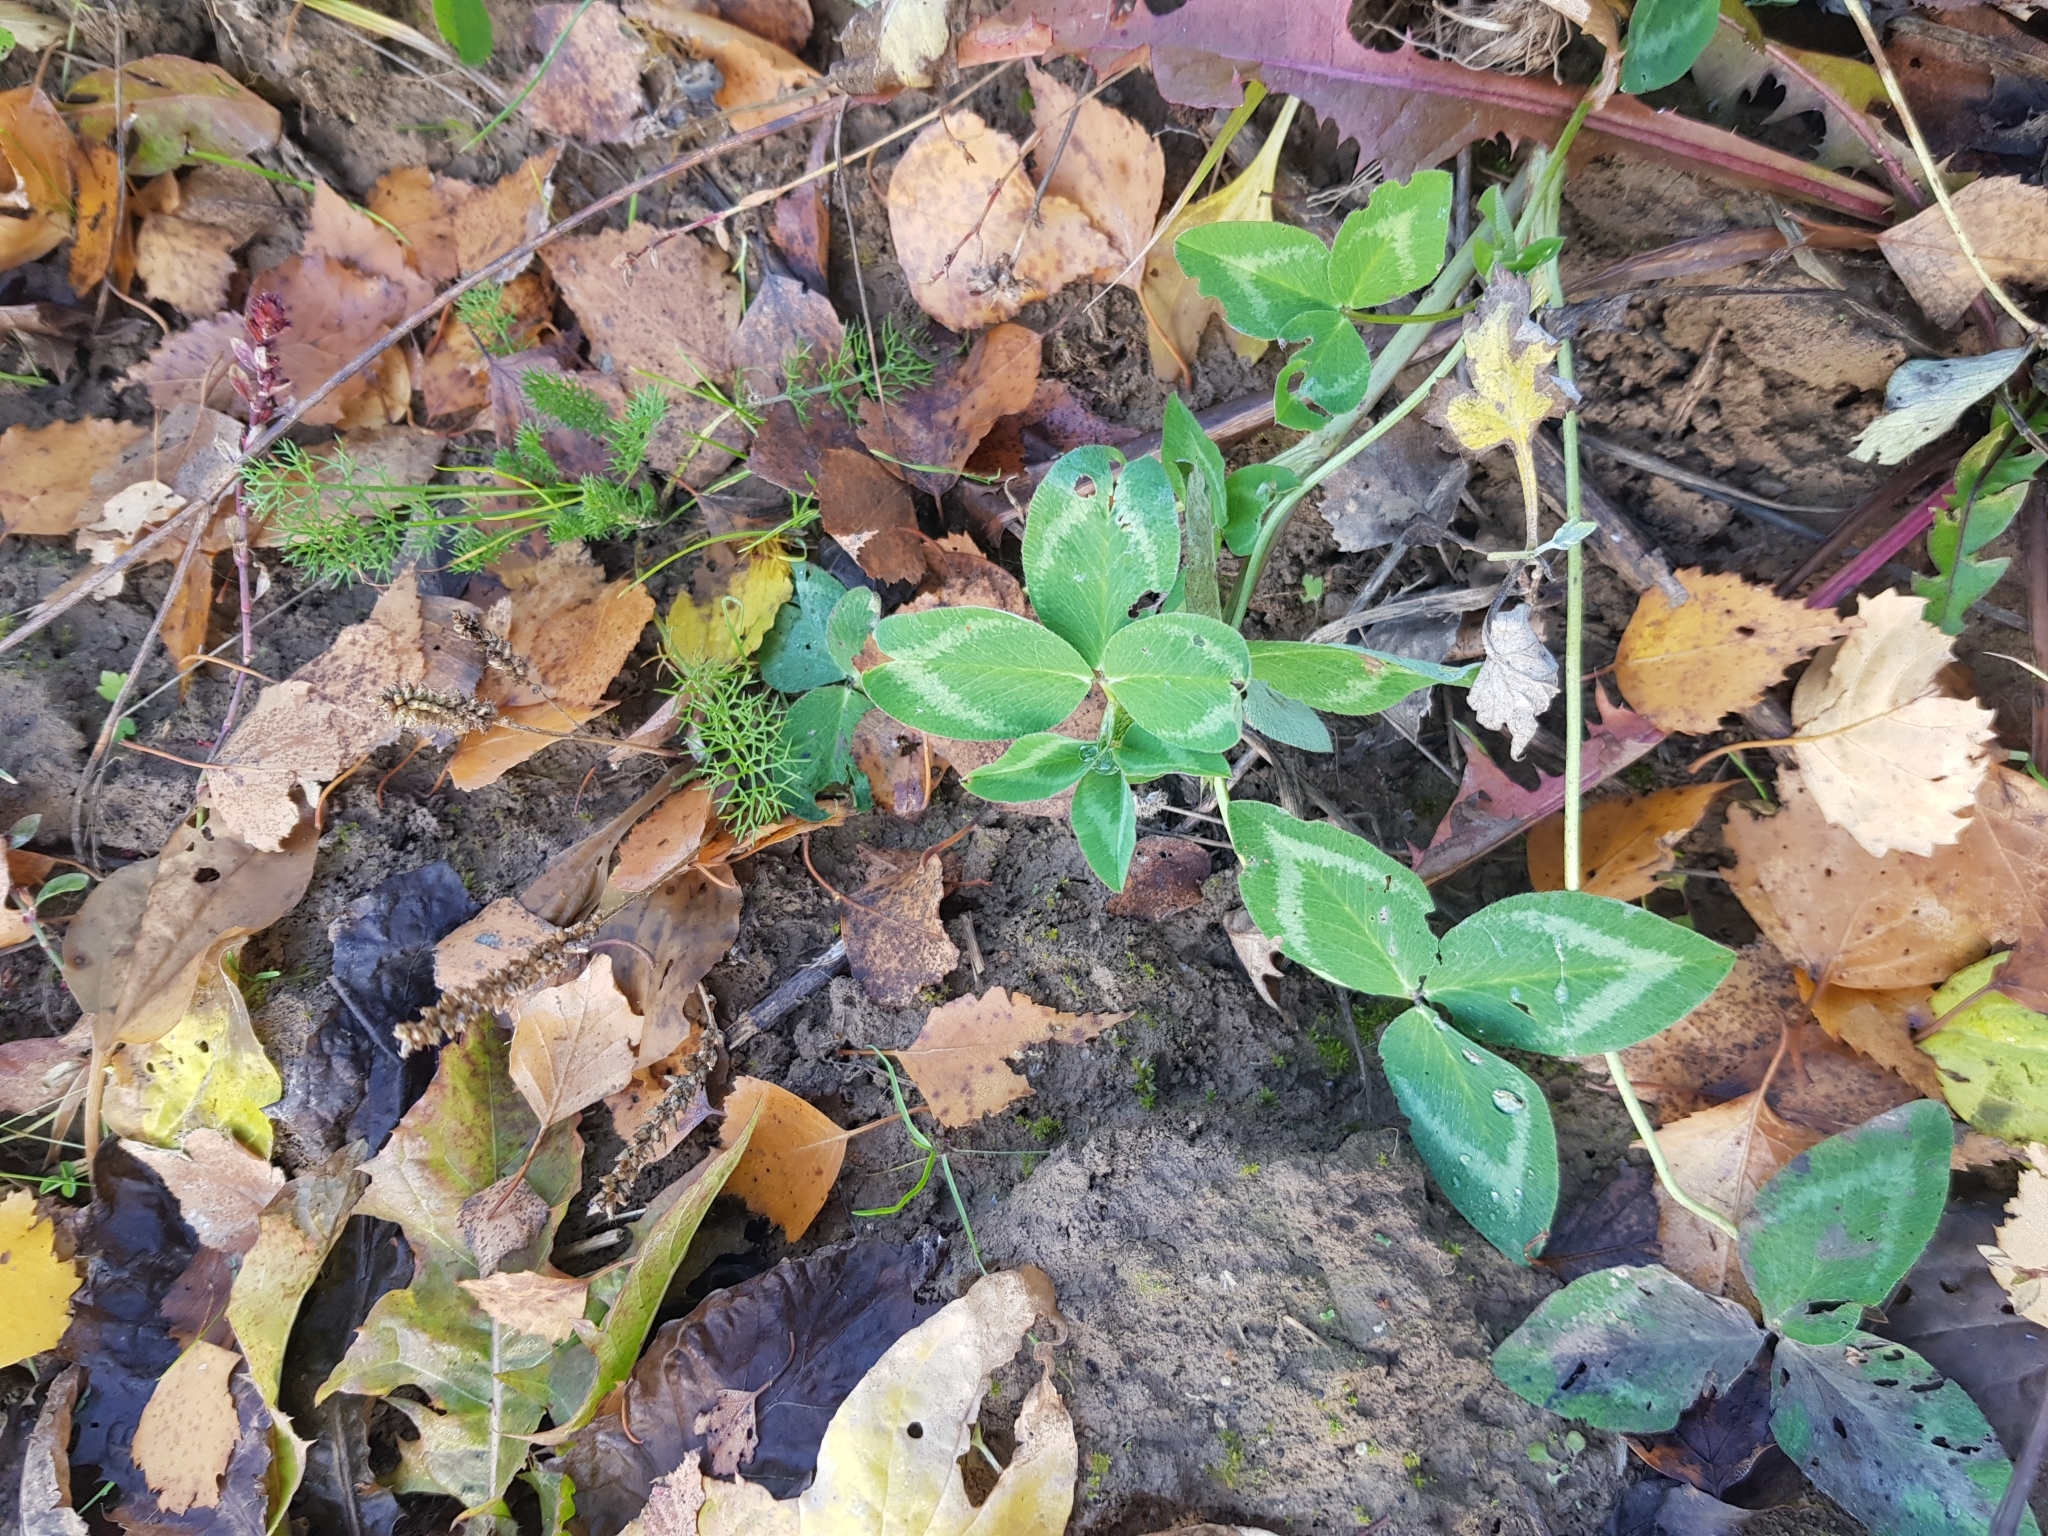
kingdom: Plantae
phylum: Tracheophyta
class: Magnoliopsida
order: Fabales
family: Fabaceae
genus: Trifolium
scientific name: Trifolium pratense
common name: Red clover
